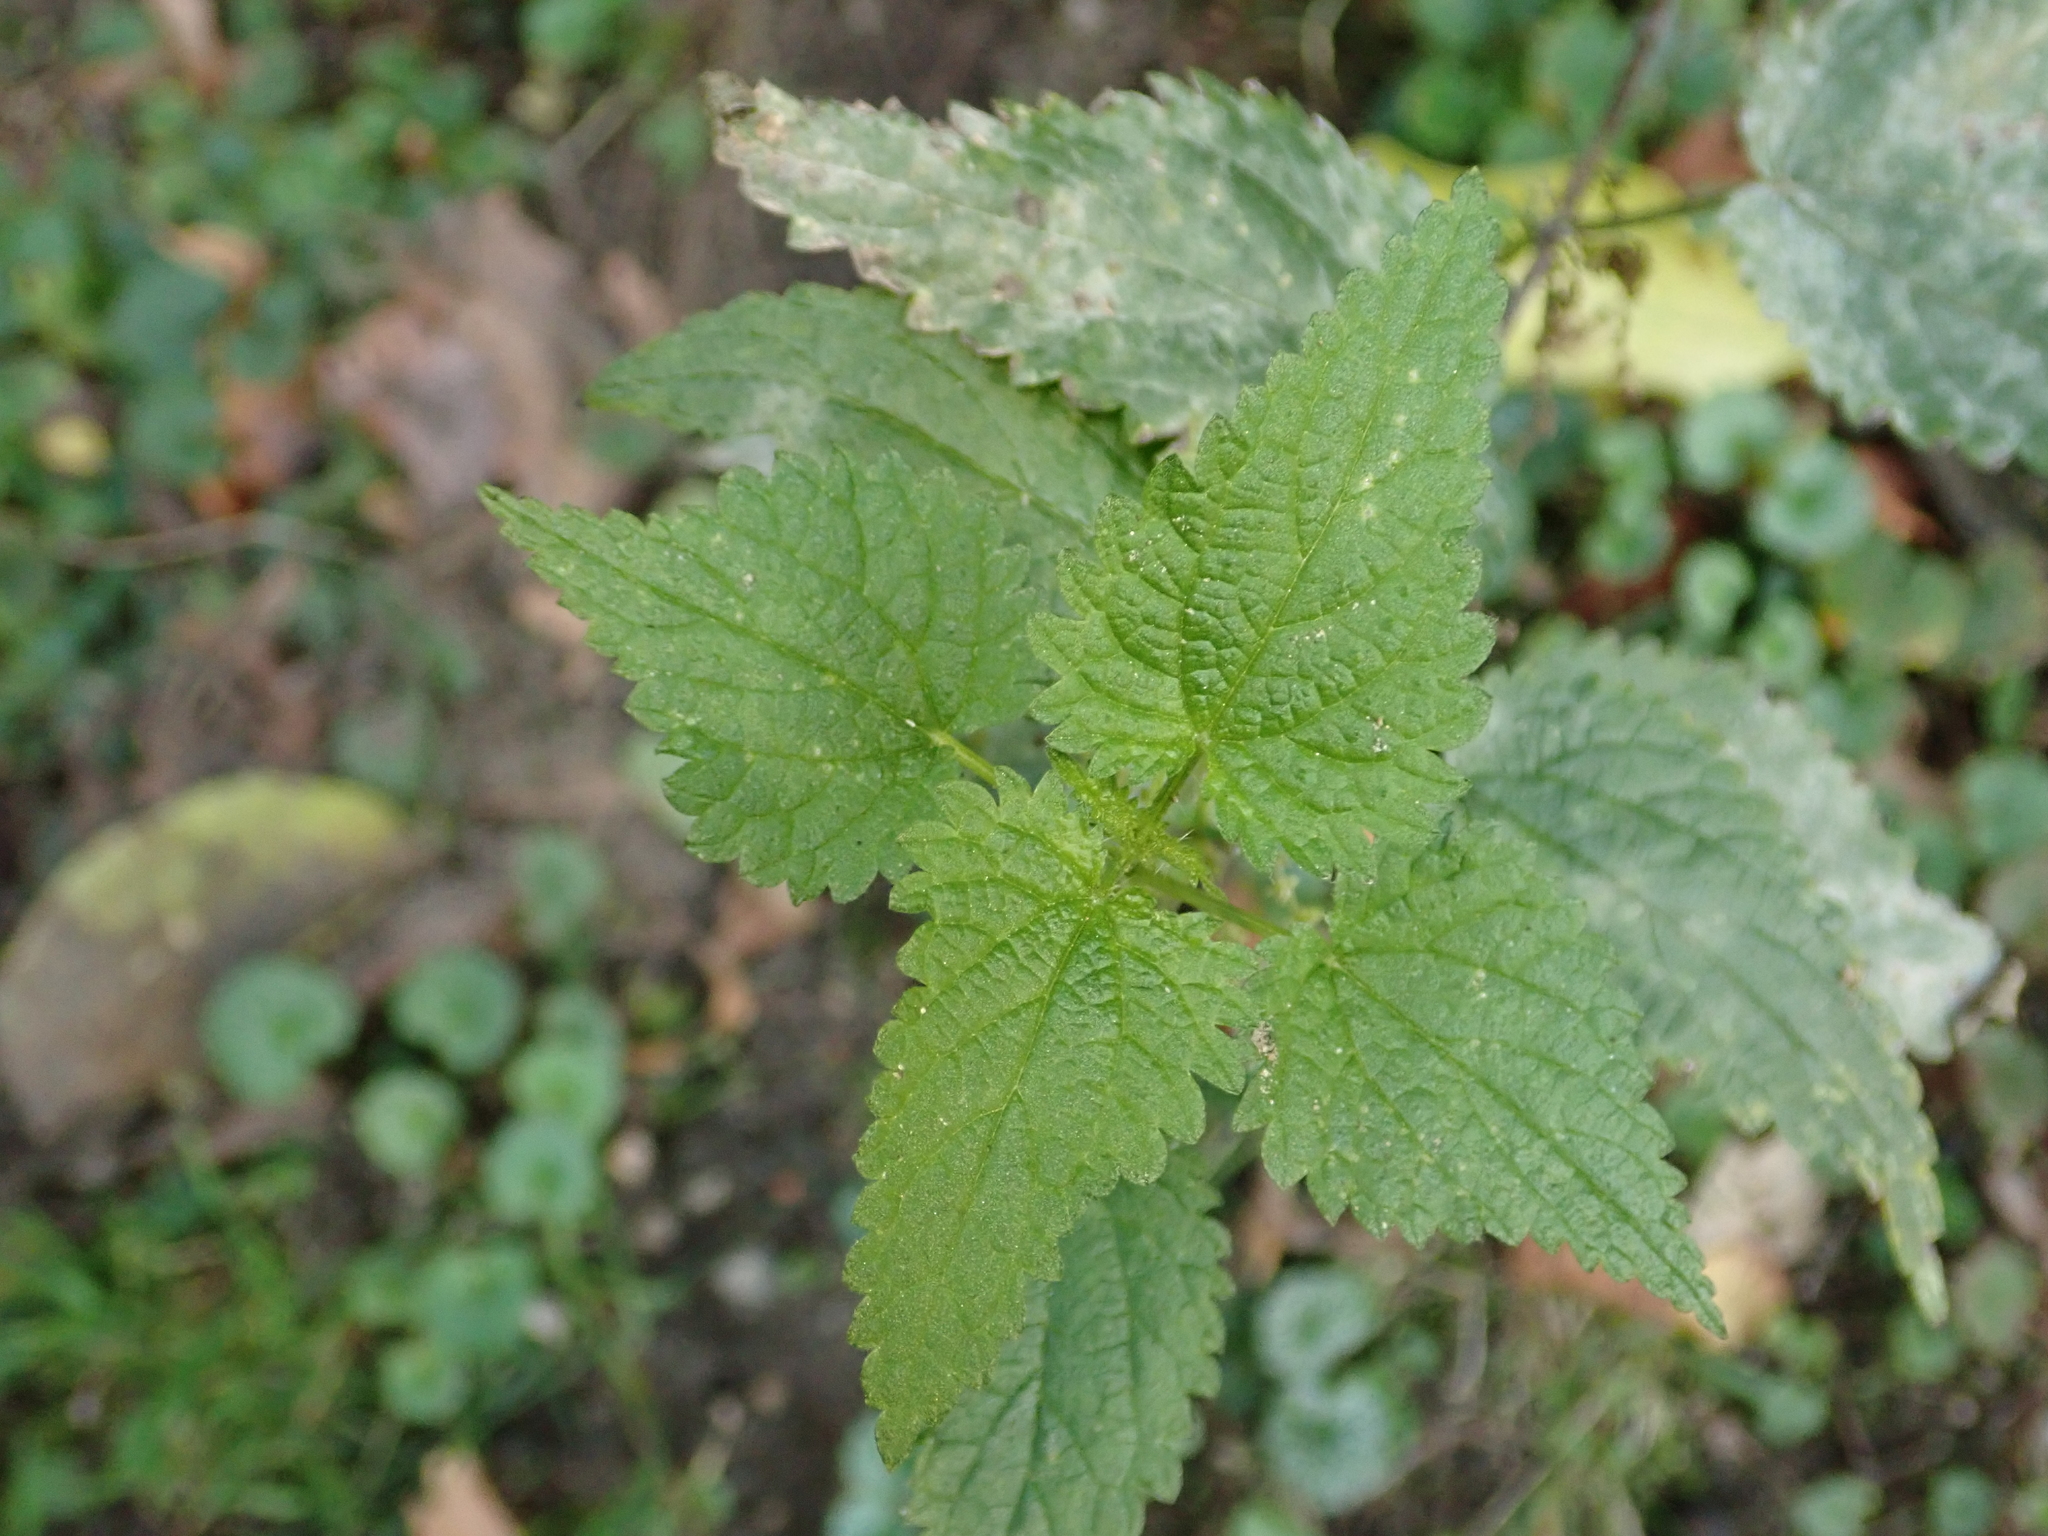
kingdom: Plantae
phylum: Tracheophyta
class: Magnoliopsida
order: Rosales
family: Urticaceae
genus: Urtica
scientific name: Urtica dioica
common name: Common nettle
